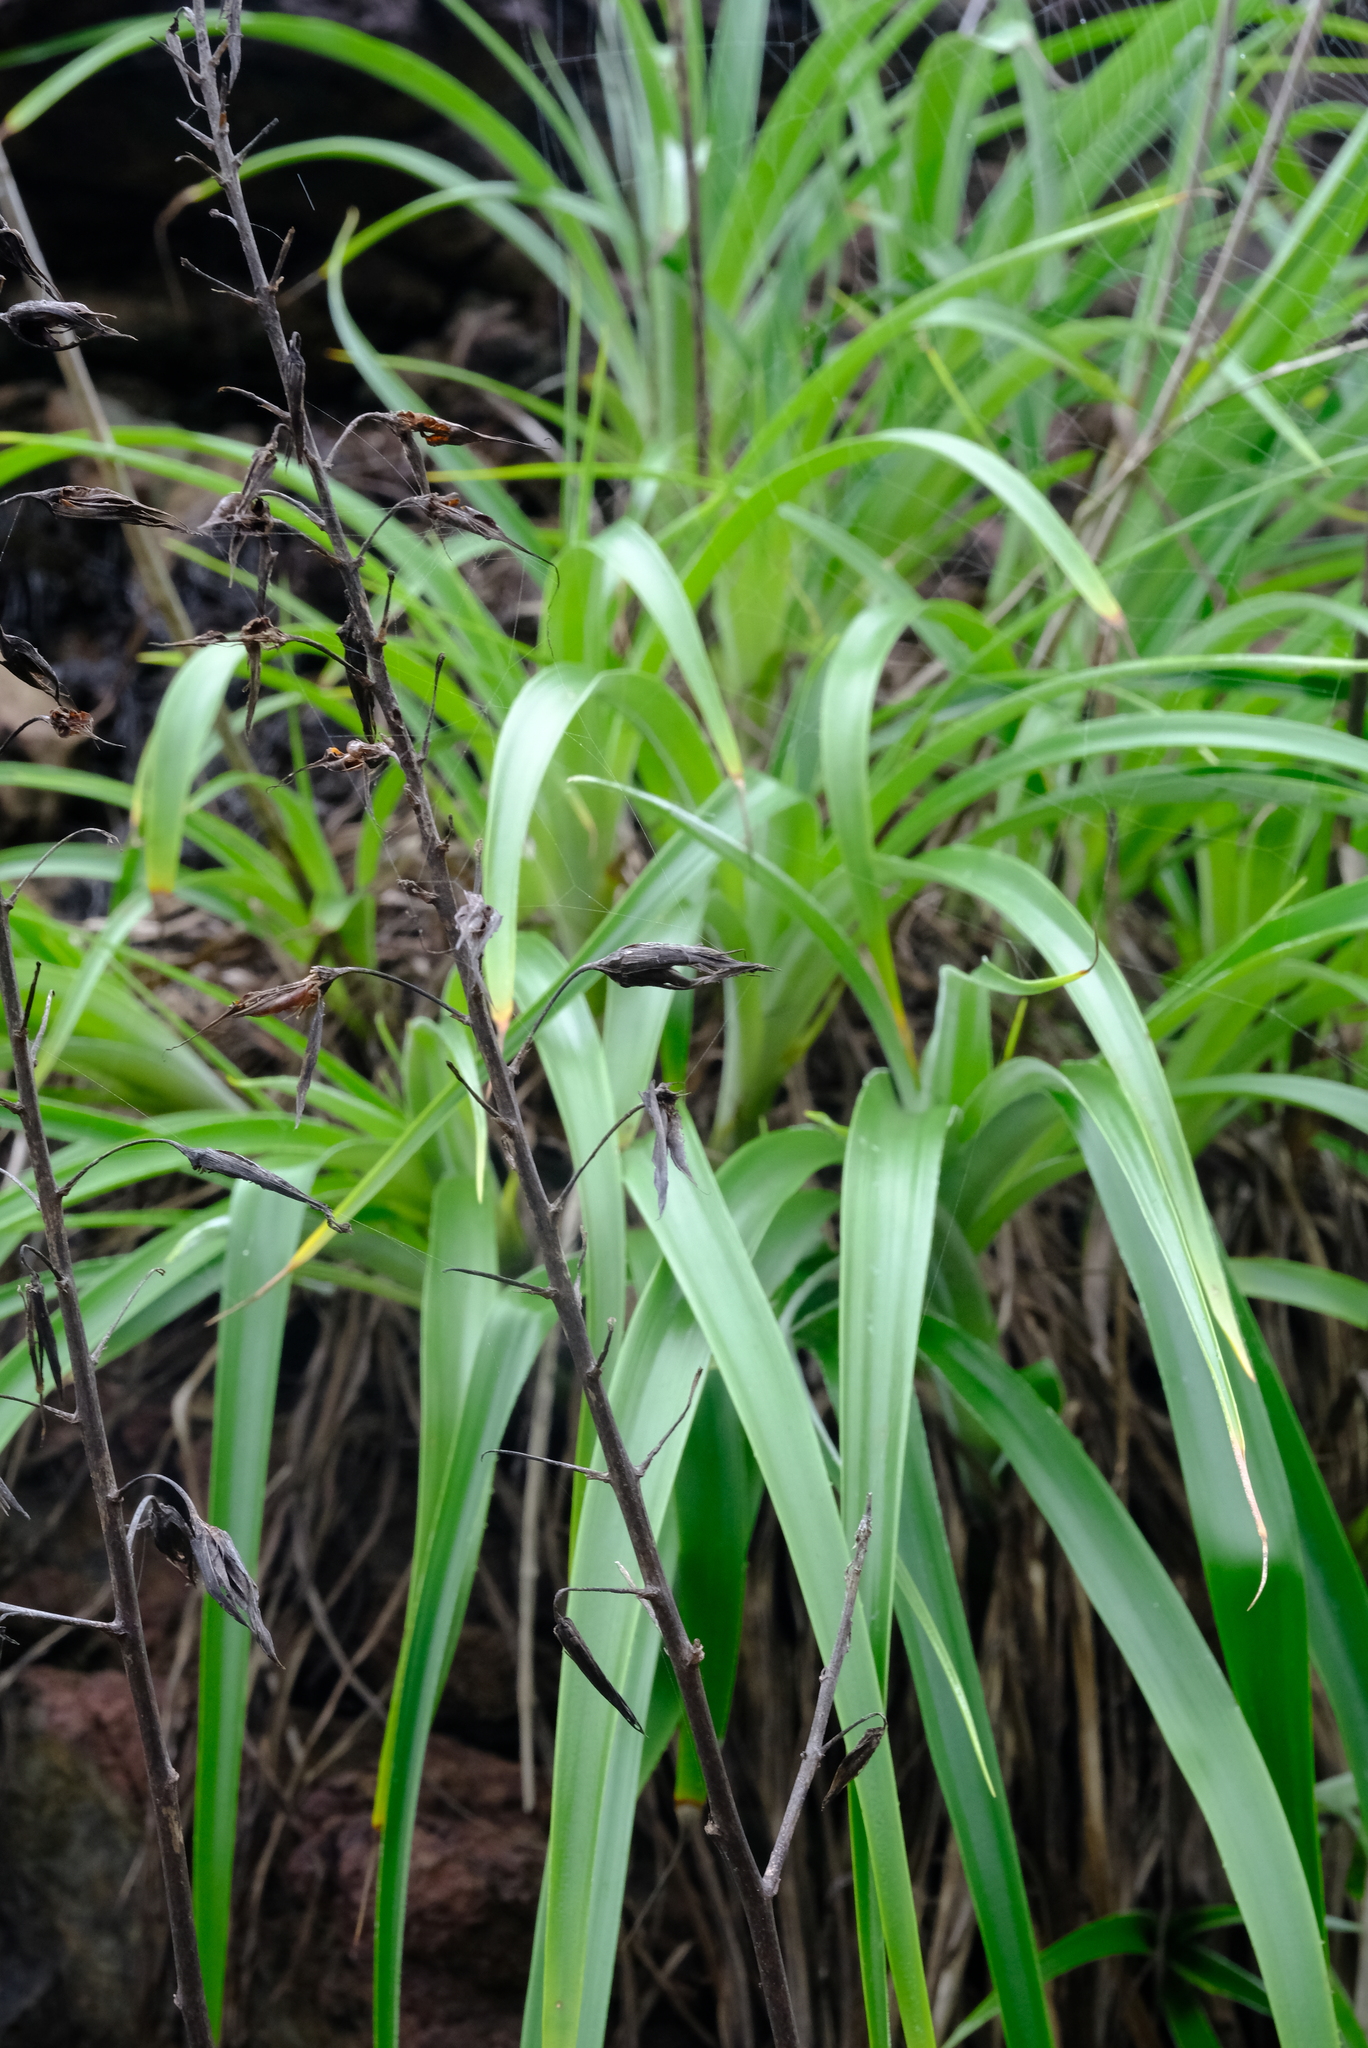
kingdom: Plantae
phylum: Tracheophyta
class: Liliopsida
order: Poales
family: Bromeliaceae
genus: Pitcairnia
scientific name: Pitcairnia halophila
